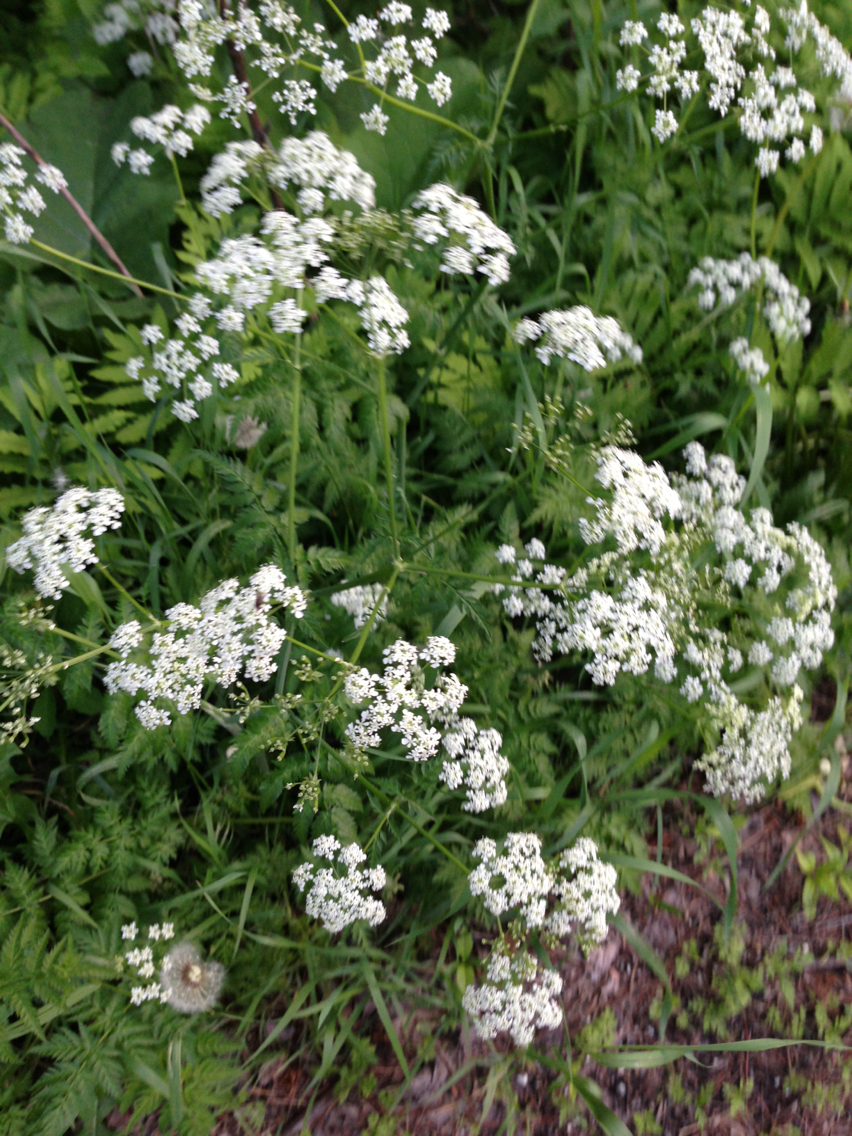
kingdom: Plantae
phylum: Tracheophyta
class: Magnoliopsida
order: Apiales
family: Apiaceae
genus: Anthriscus
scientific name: Anthriscus sylvestris
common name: Cow parsley
